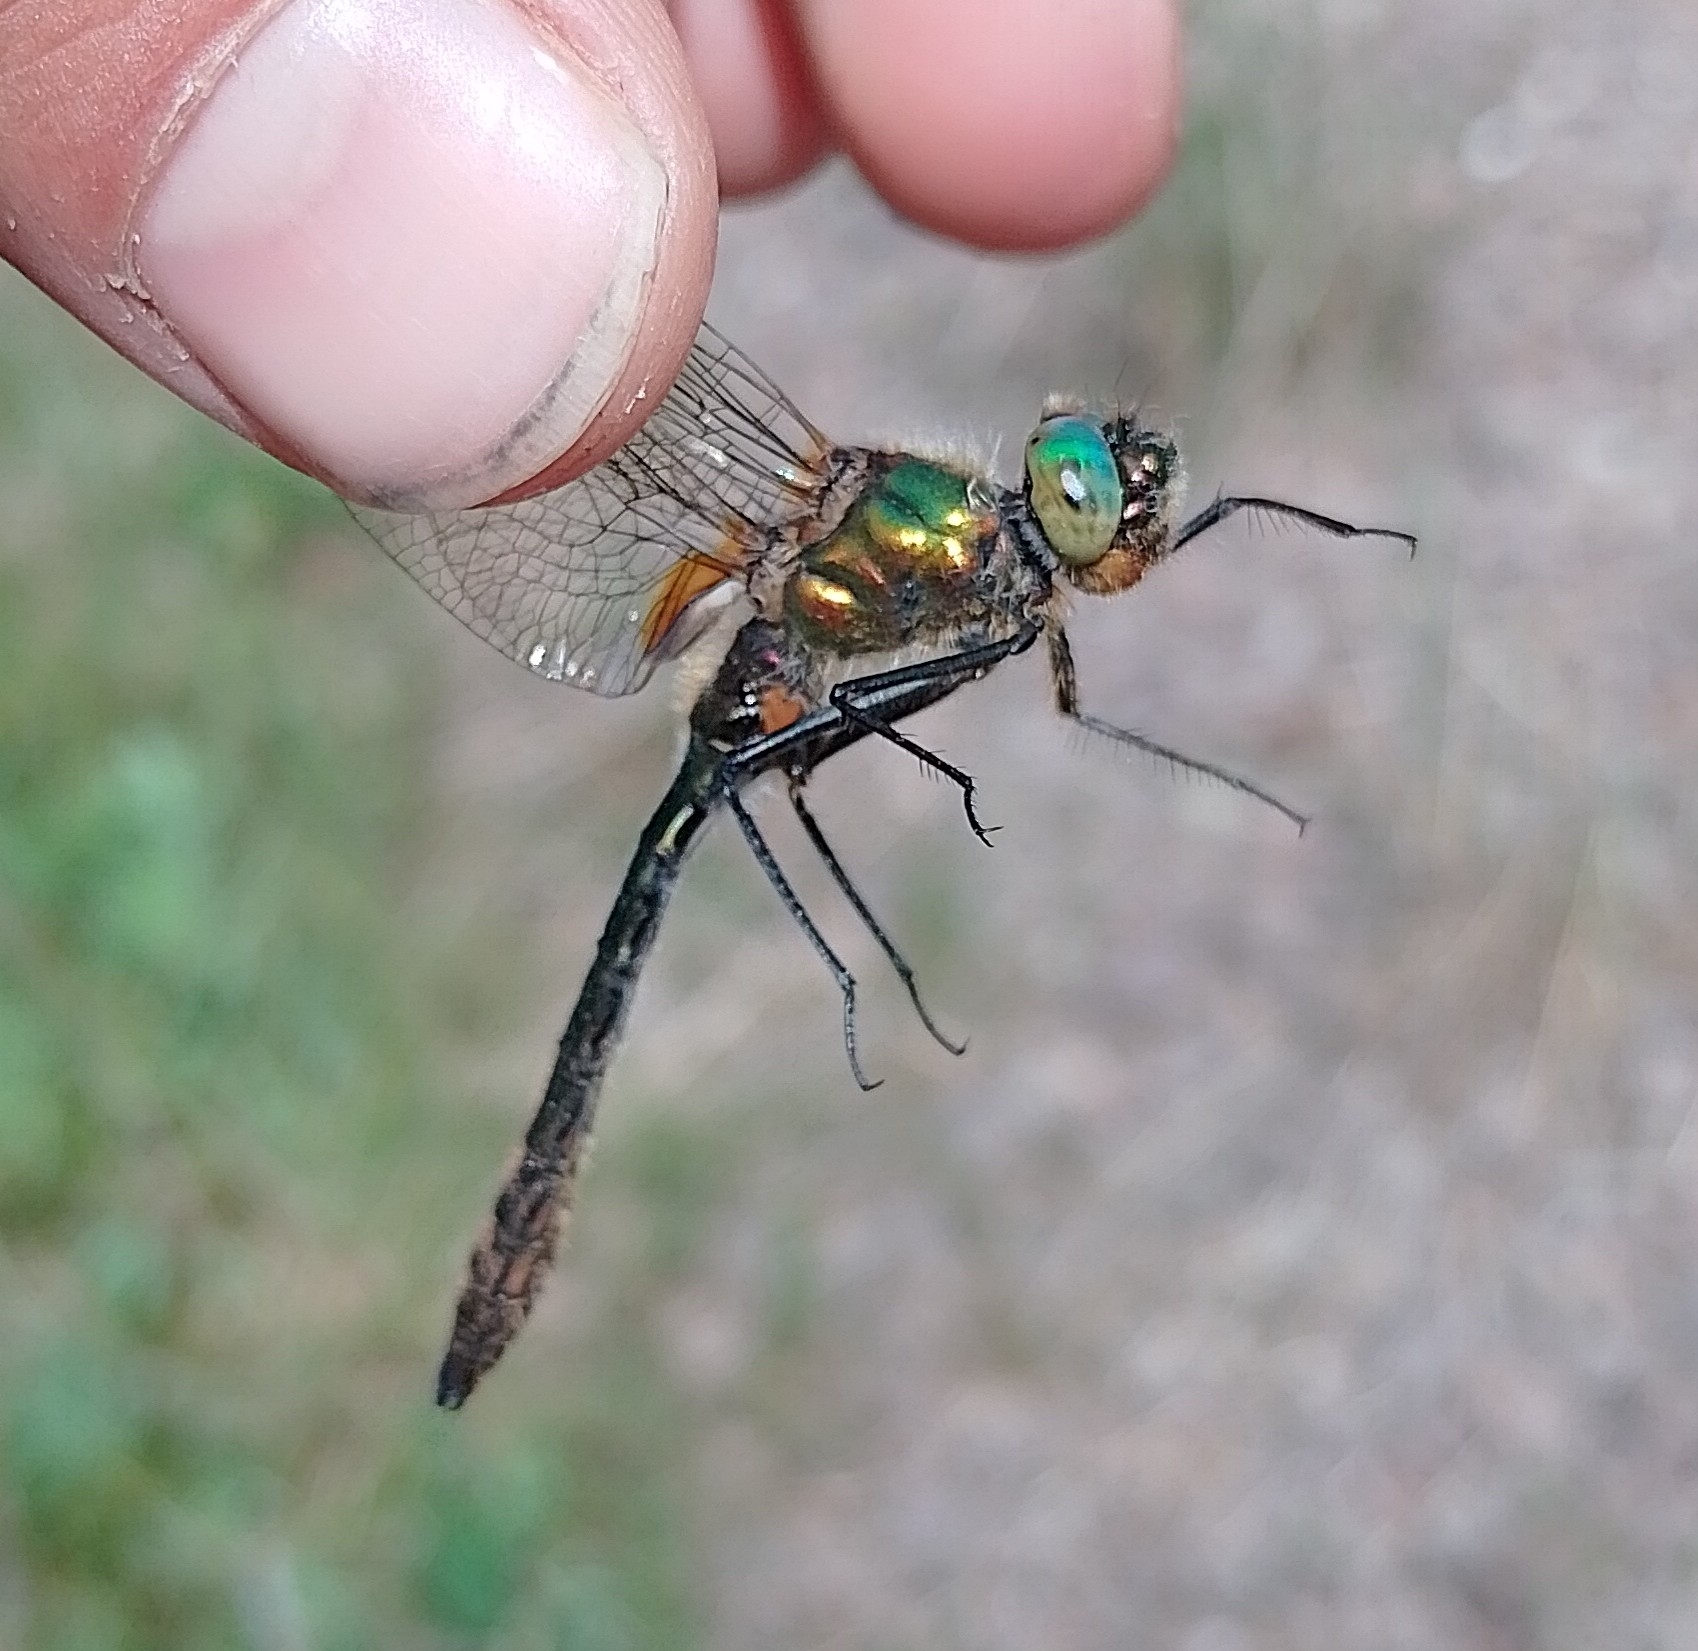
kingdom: Animalia
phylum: Arthropoda
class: Insecta
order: Odonata
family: Corduliidae
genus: Cordulia
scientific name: Cordulia aenea
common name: Downy emerald
